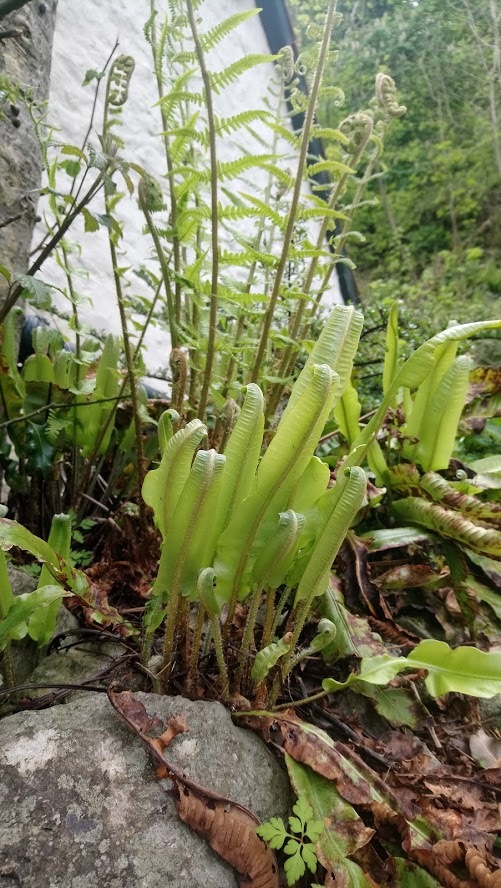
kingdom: Plantae
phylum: Tracheophyta
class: Polypodiopsida
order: Polypodiales
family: Aspleniaceae
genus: Asplenium
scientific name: Asplenium scolopendrium
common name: Hart's-tongue fern
